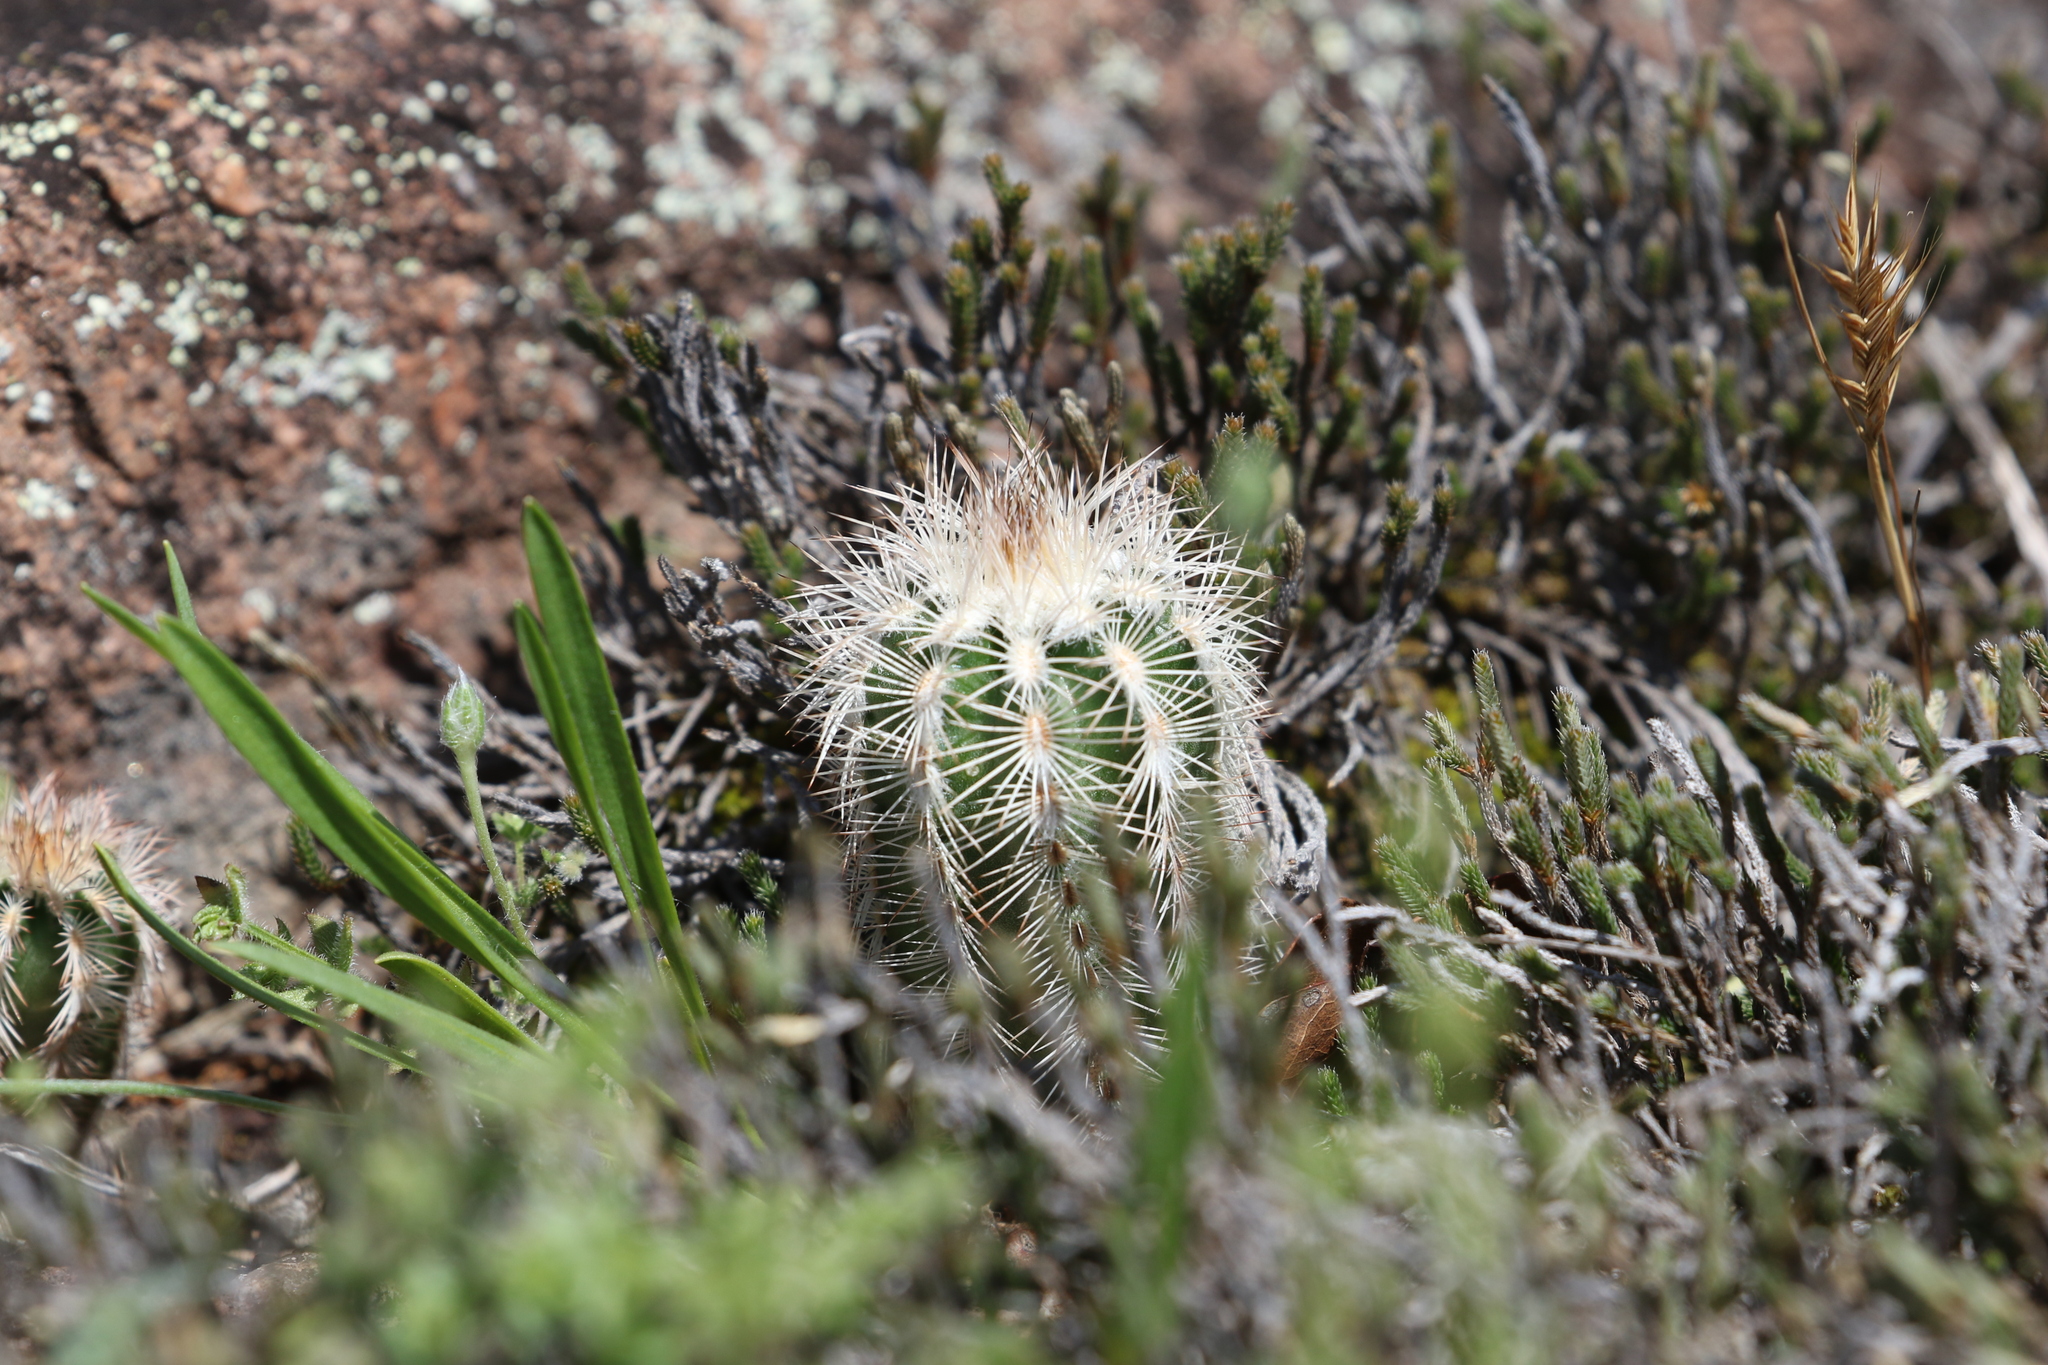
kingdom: Plantae
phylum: Tracheophyta
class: Magnoliopsida
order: Caryophyllales
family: Cactaceae
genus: Echinocereus
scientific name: Echinocereus reichenbachii
